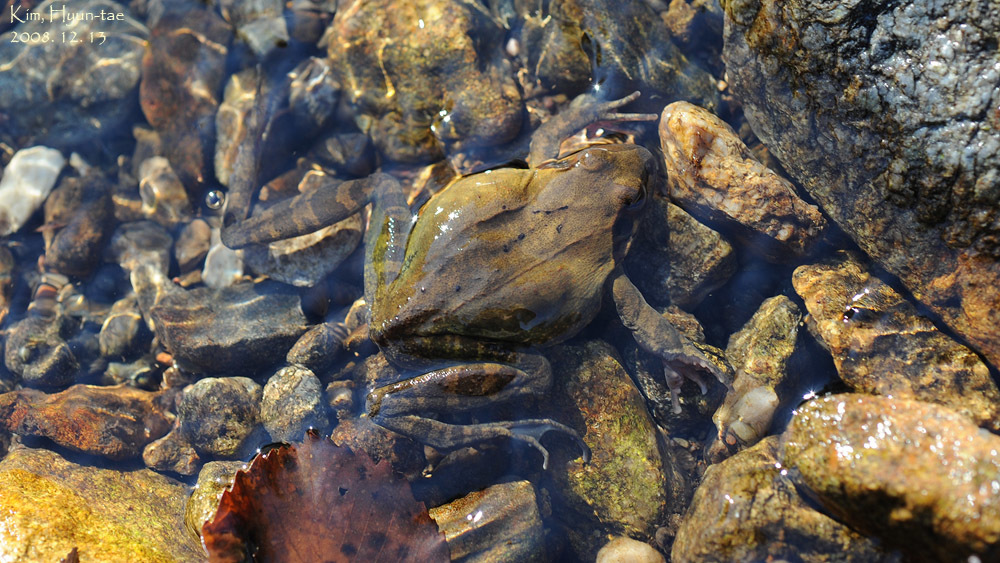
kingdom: Animalia
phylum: Chordata
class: Amphibia
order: Anura
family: Ranidae
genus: Rana
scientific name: Rana uenoi
